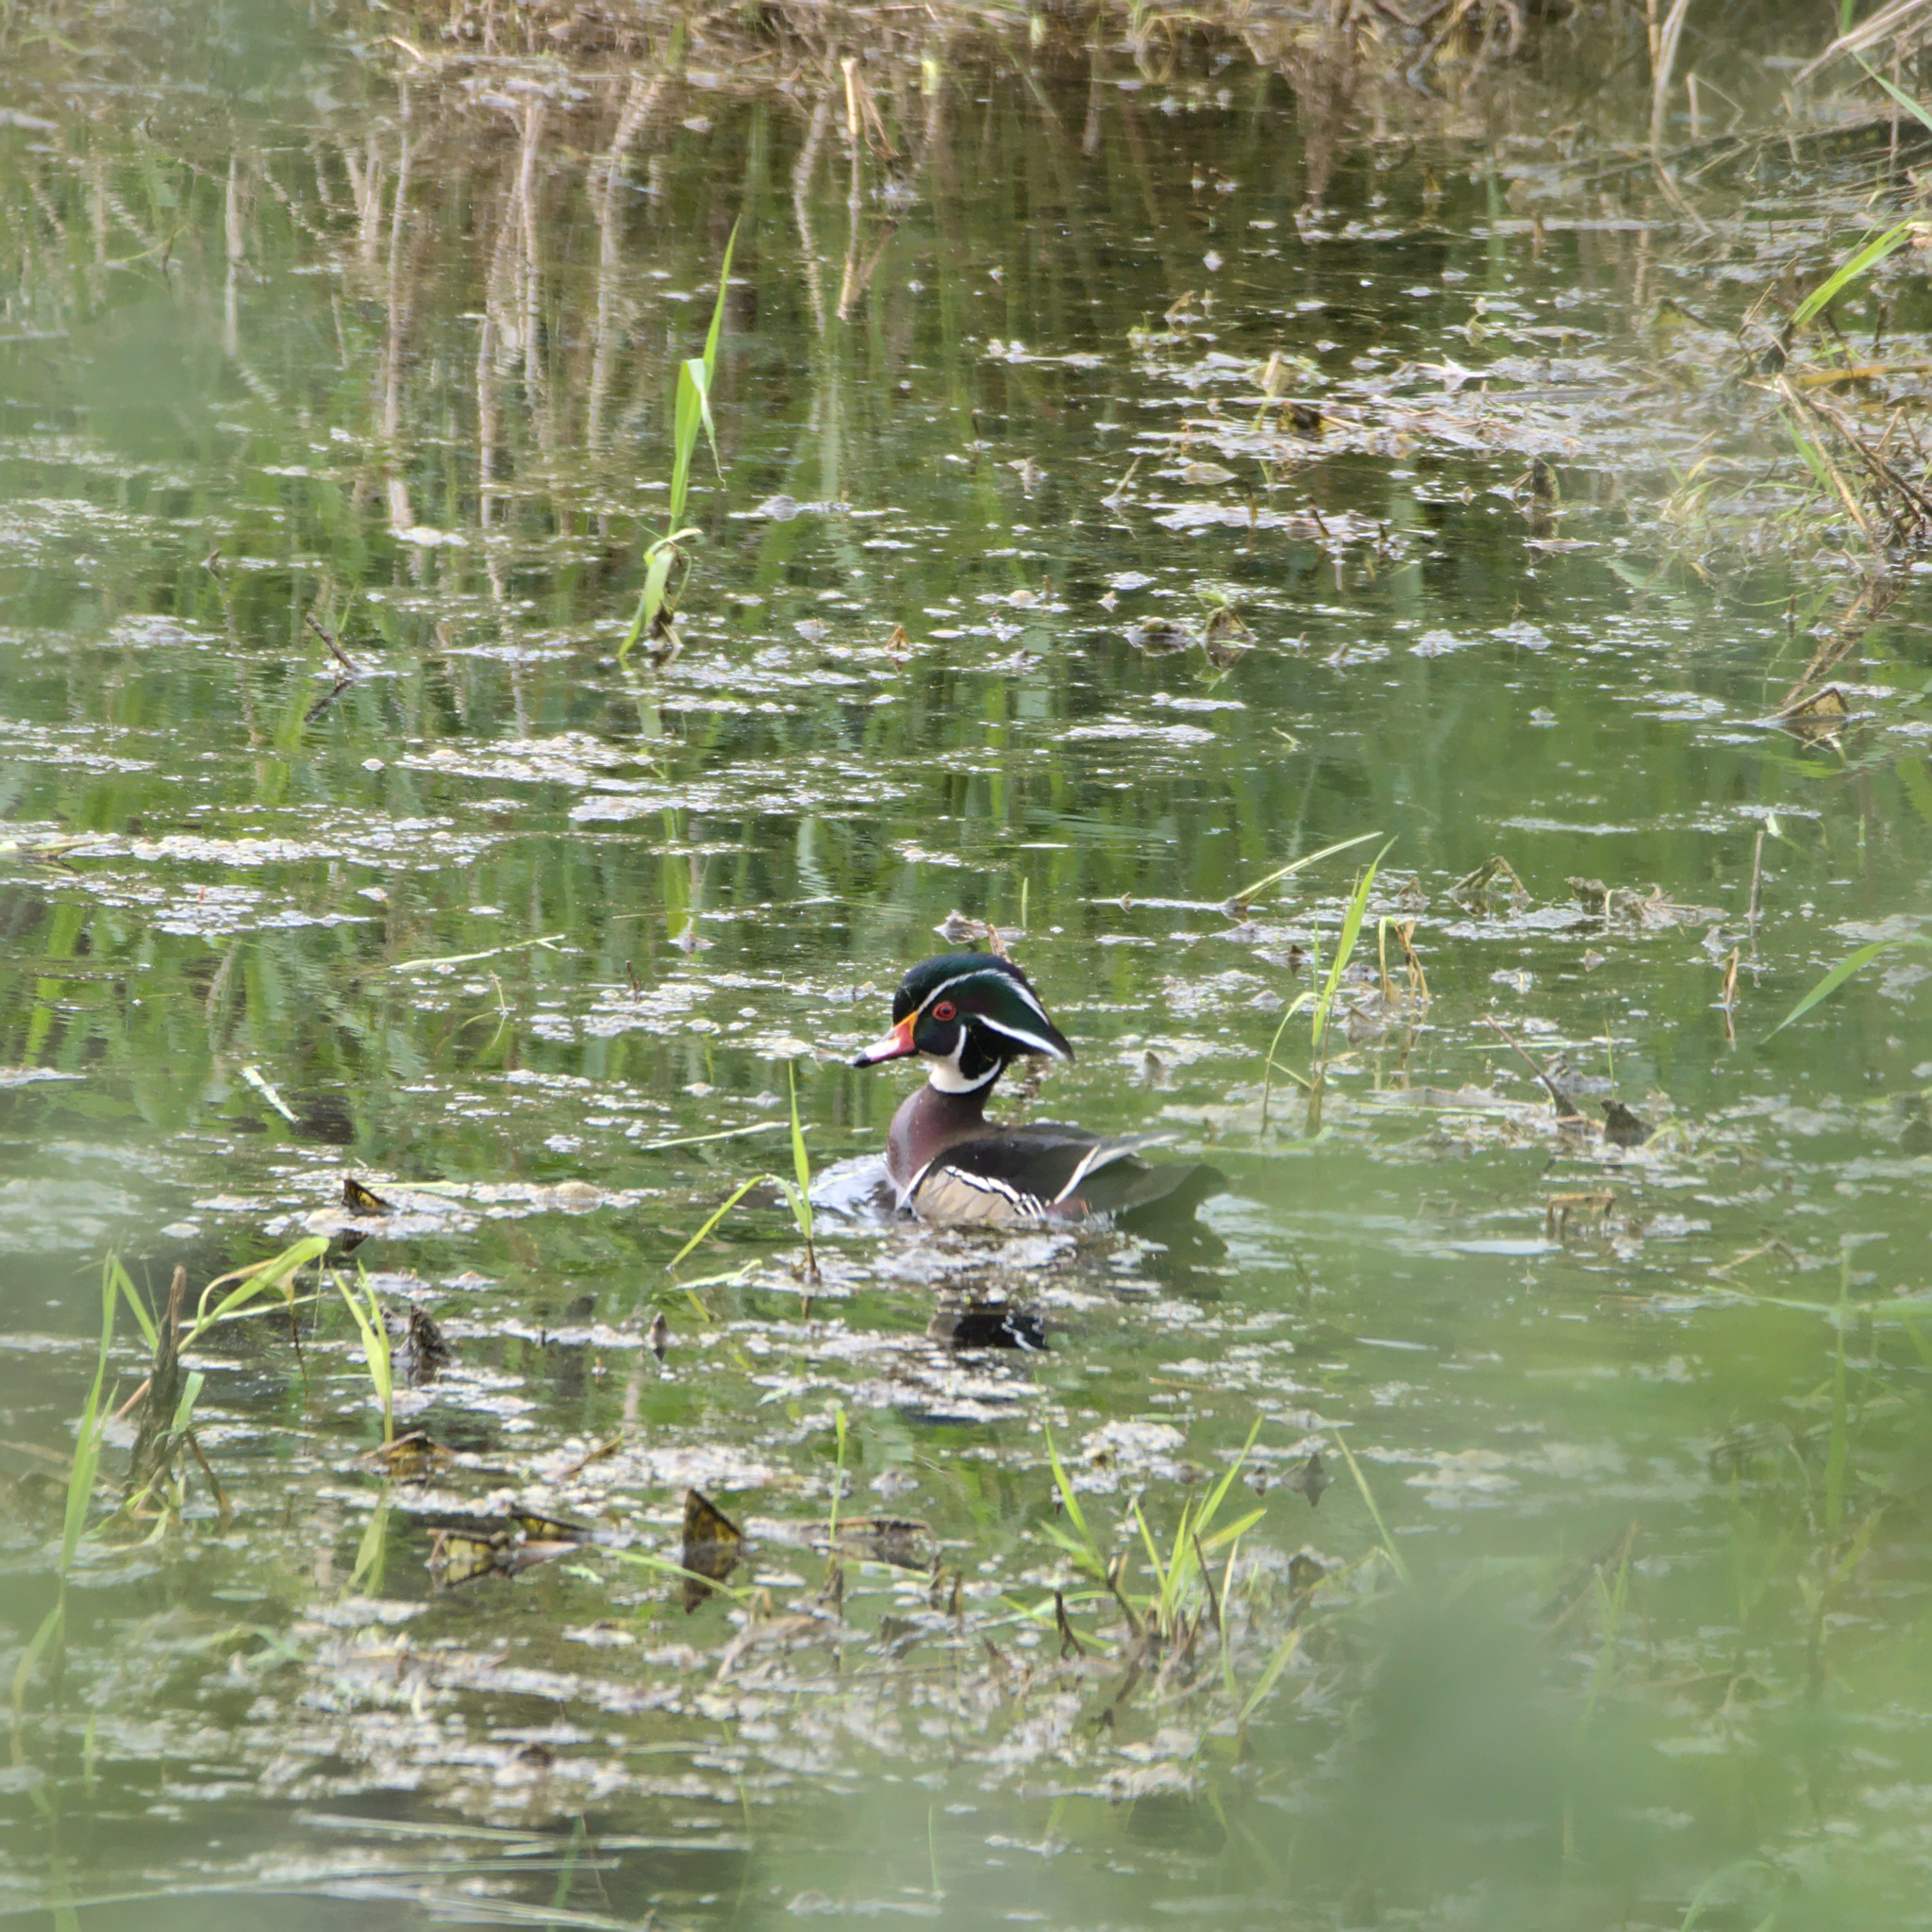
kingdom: Animalia
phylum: Chordata
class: Aves
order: Anseriformes
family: Anatidae
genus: Aix
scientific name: Aix sponsa
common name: Wood duck
